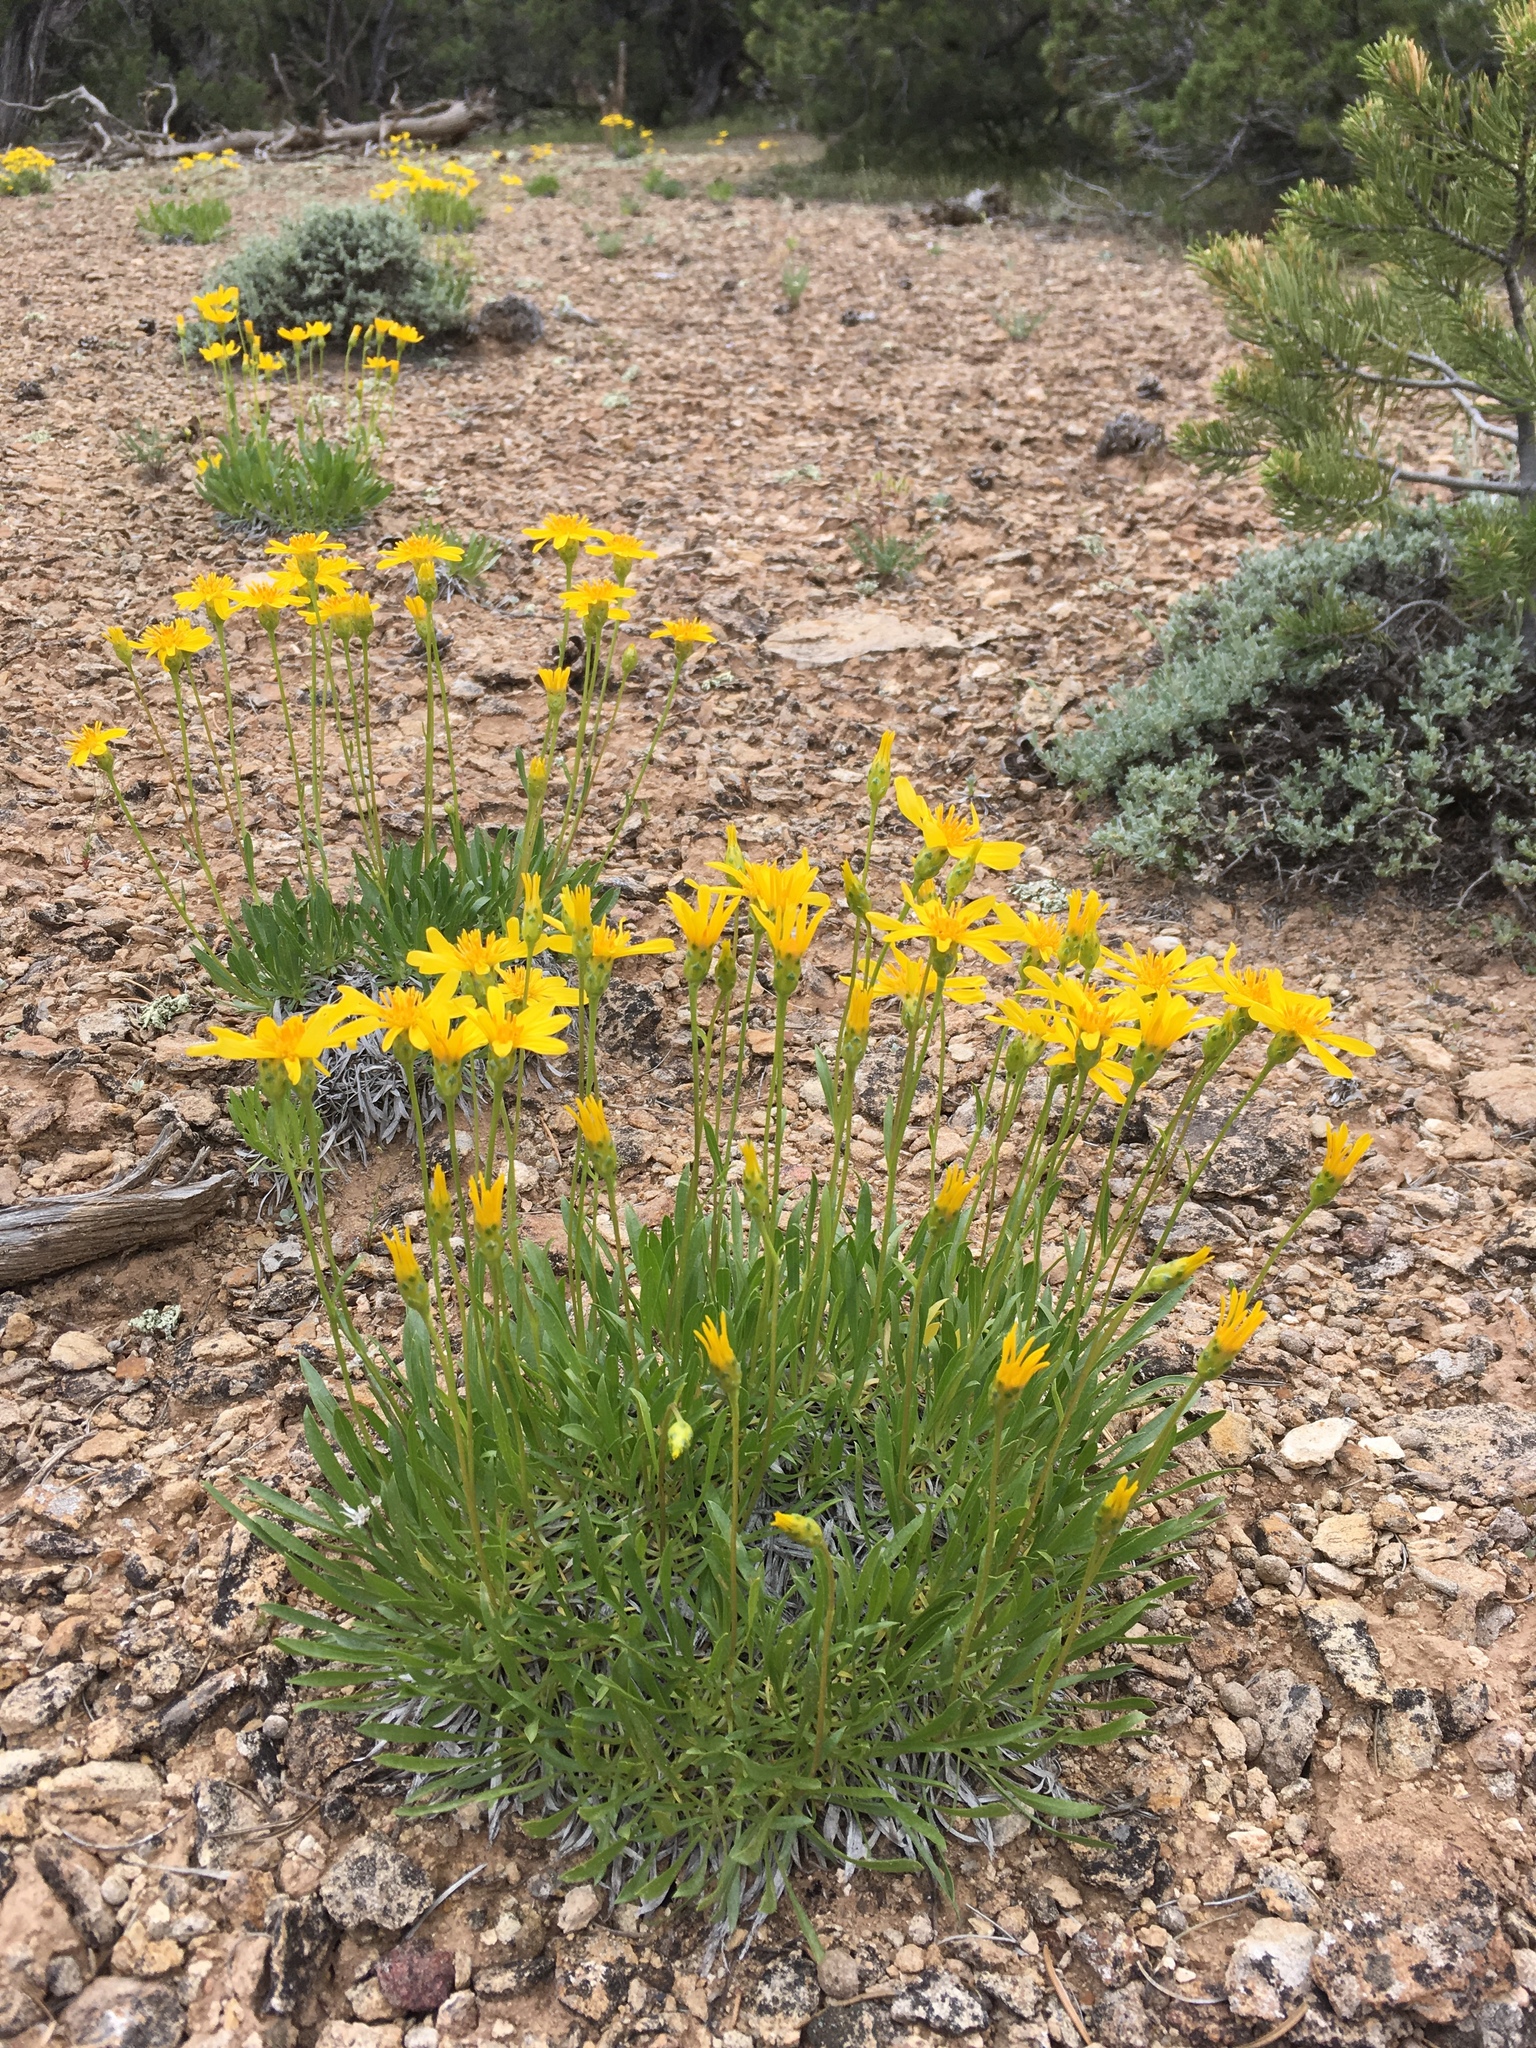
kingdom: Plantae
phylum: Tracheophyta
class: Magnoliopsida
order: Asterales
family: Asteraceae
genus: Stenotus
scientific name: Stenotus armerioides
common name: Thrifty goldenweed
